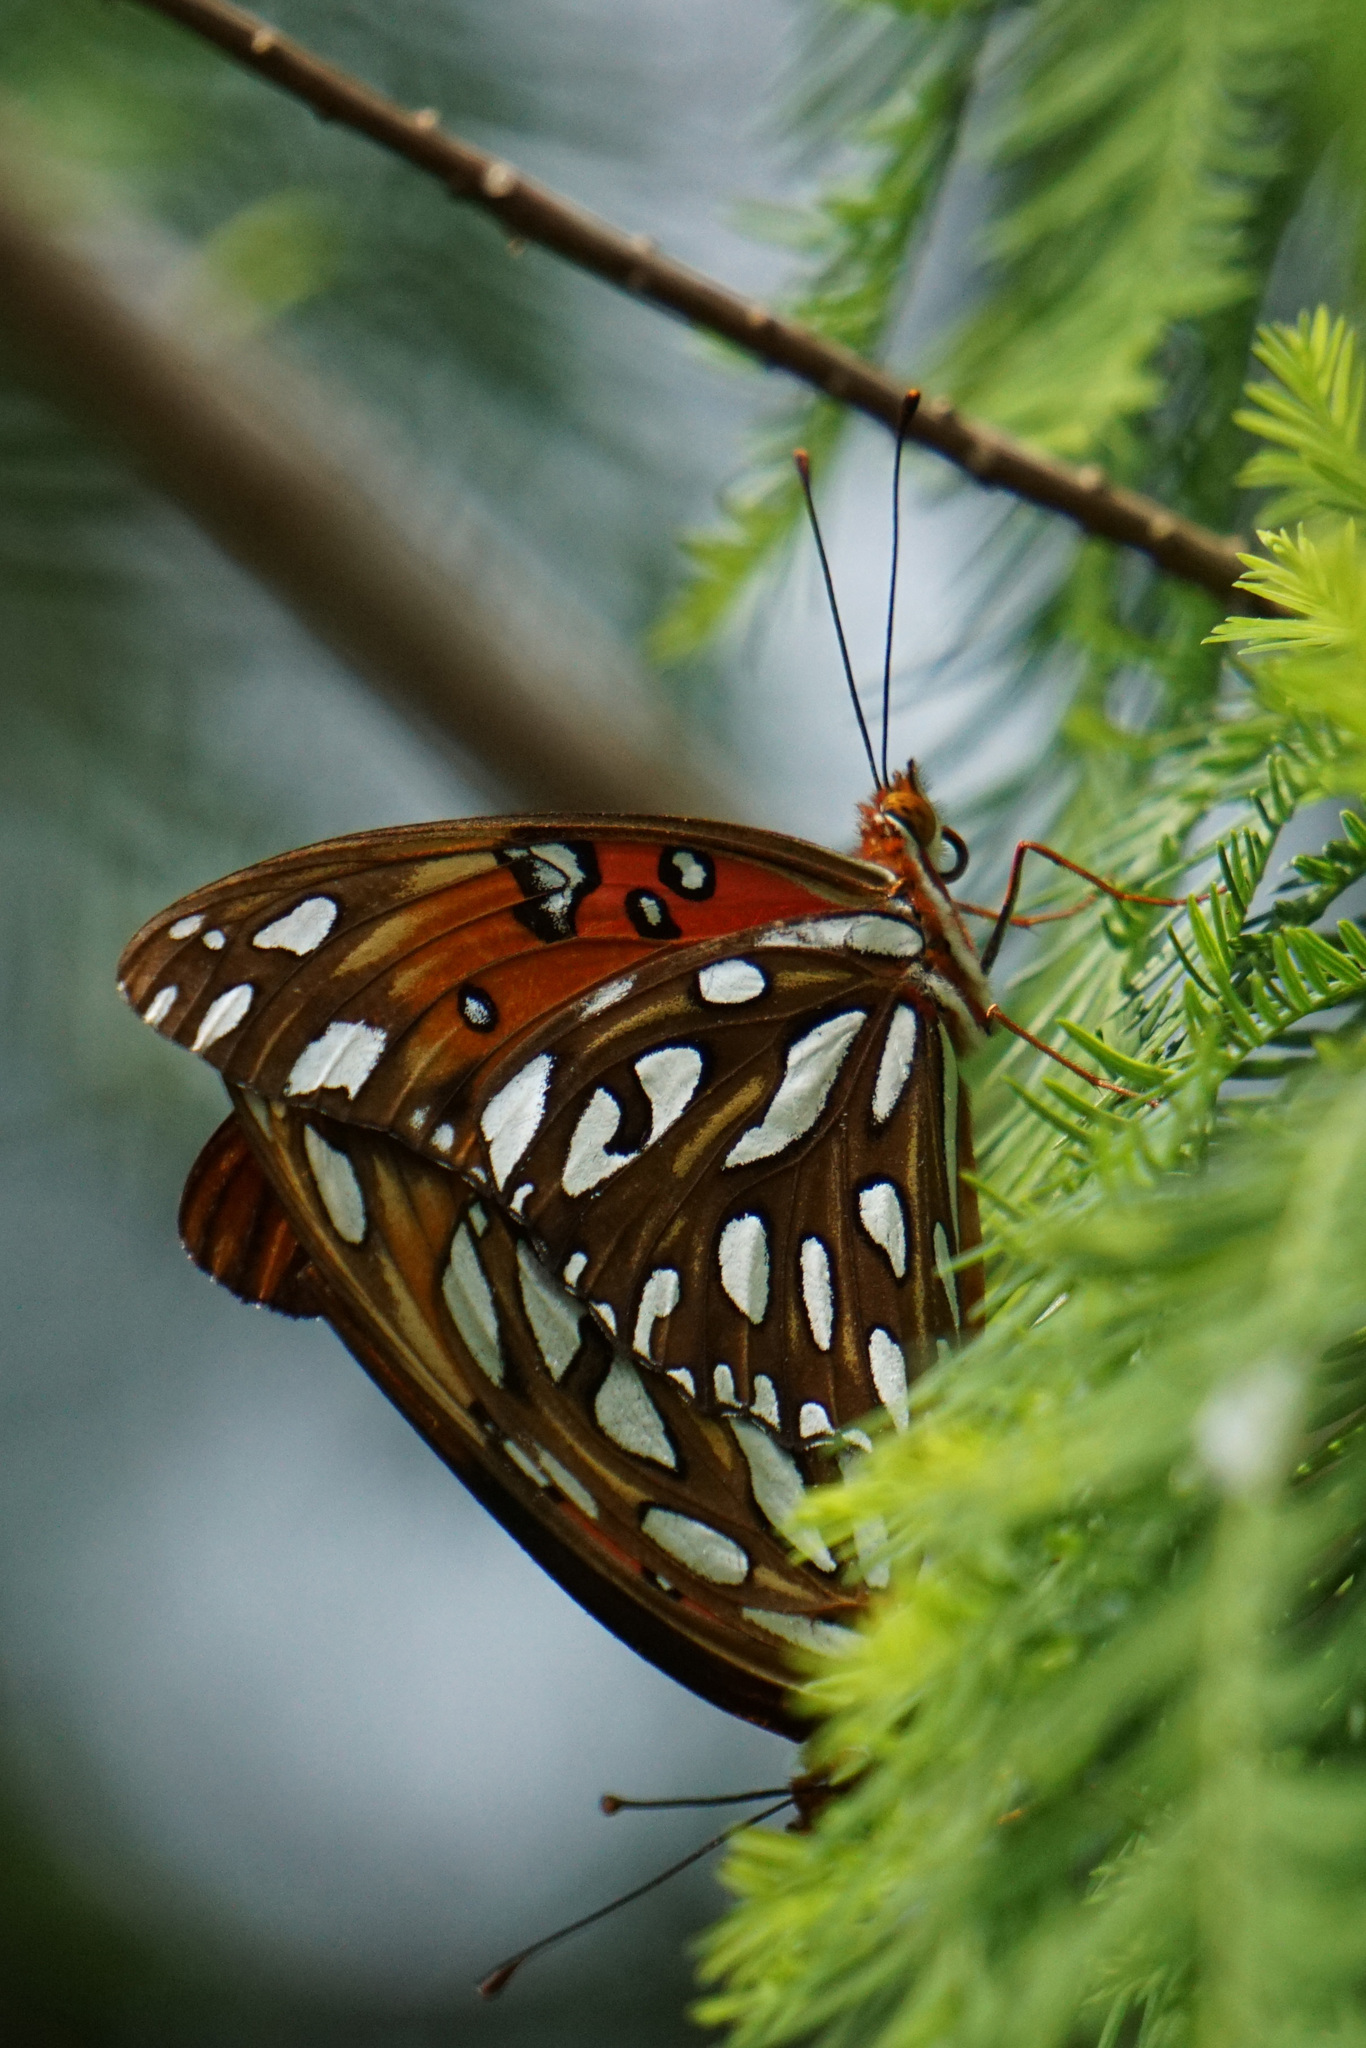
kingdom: Animalia
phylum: Arthropoda
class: Insecta
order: Lepidoptera
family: Nymphalidae
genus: Dione
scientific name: Dione vanillae
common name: Gulf fritillary
